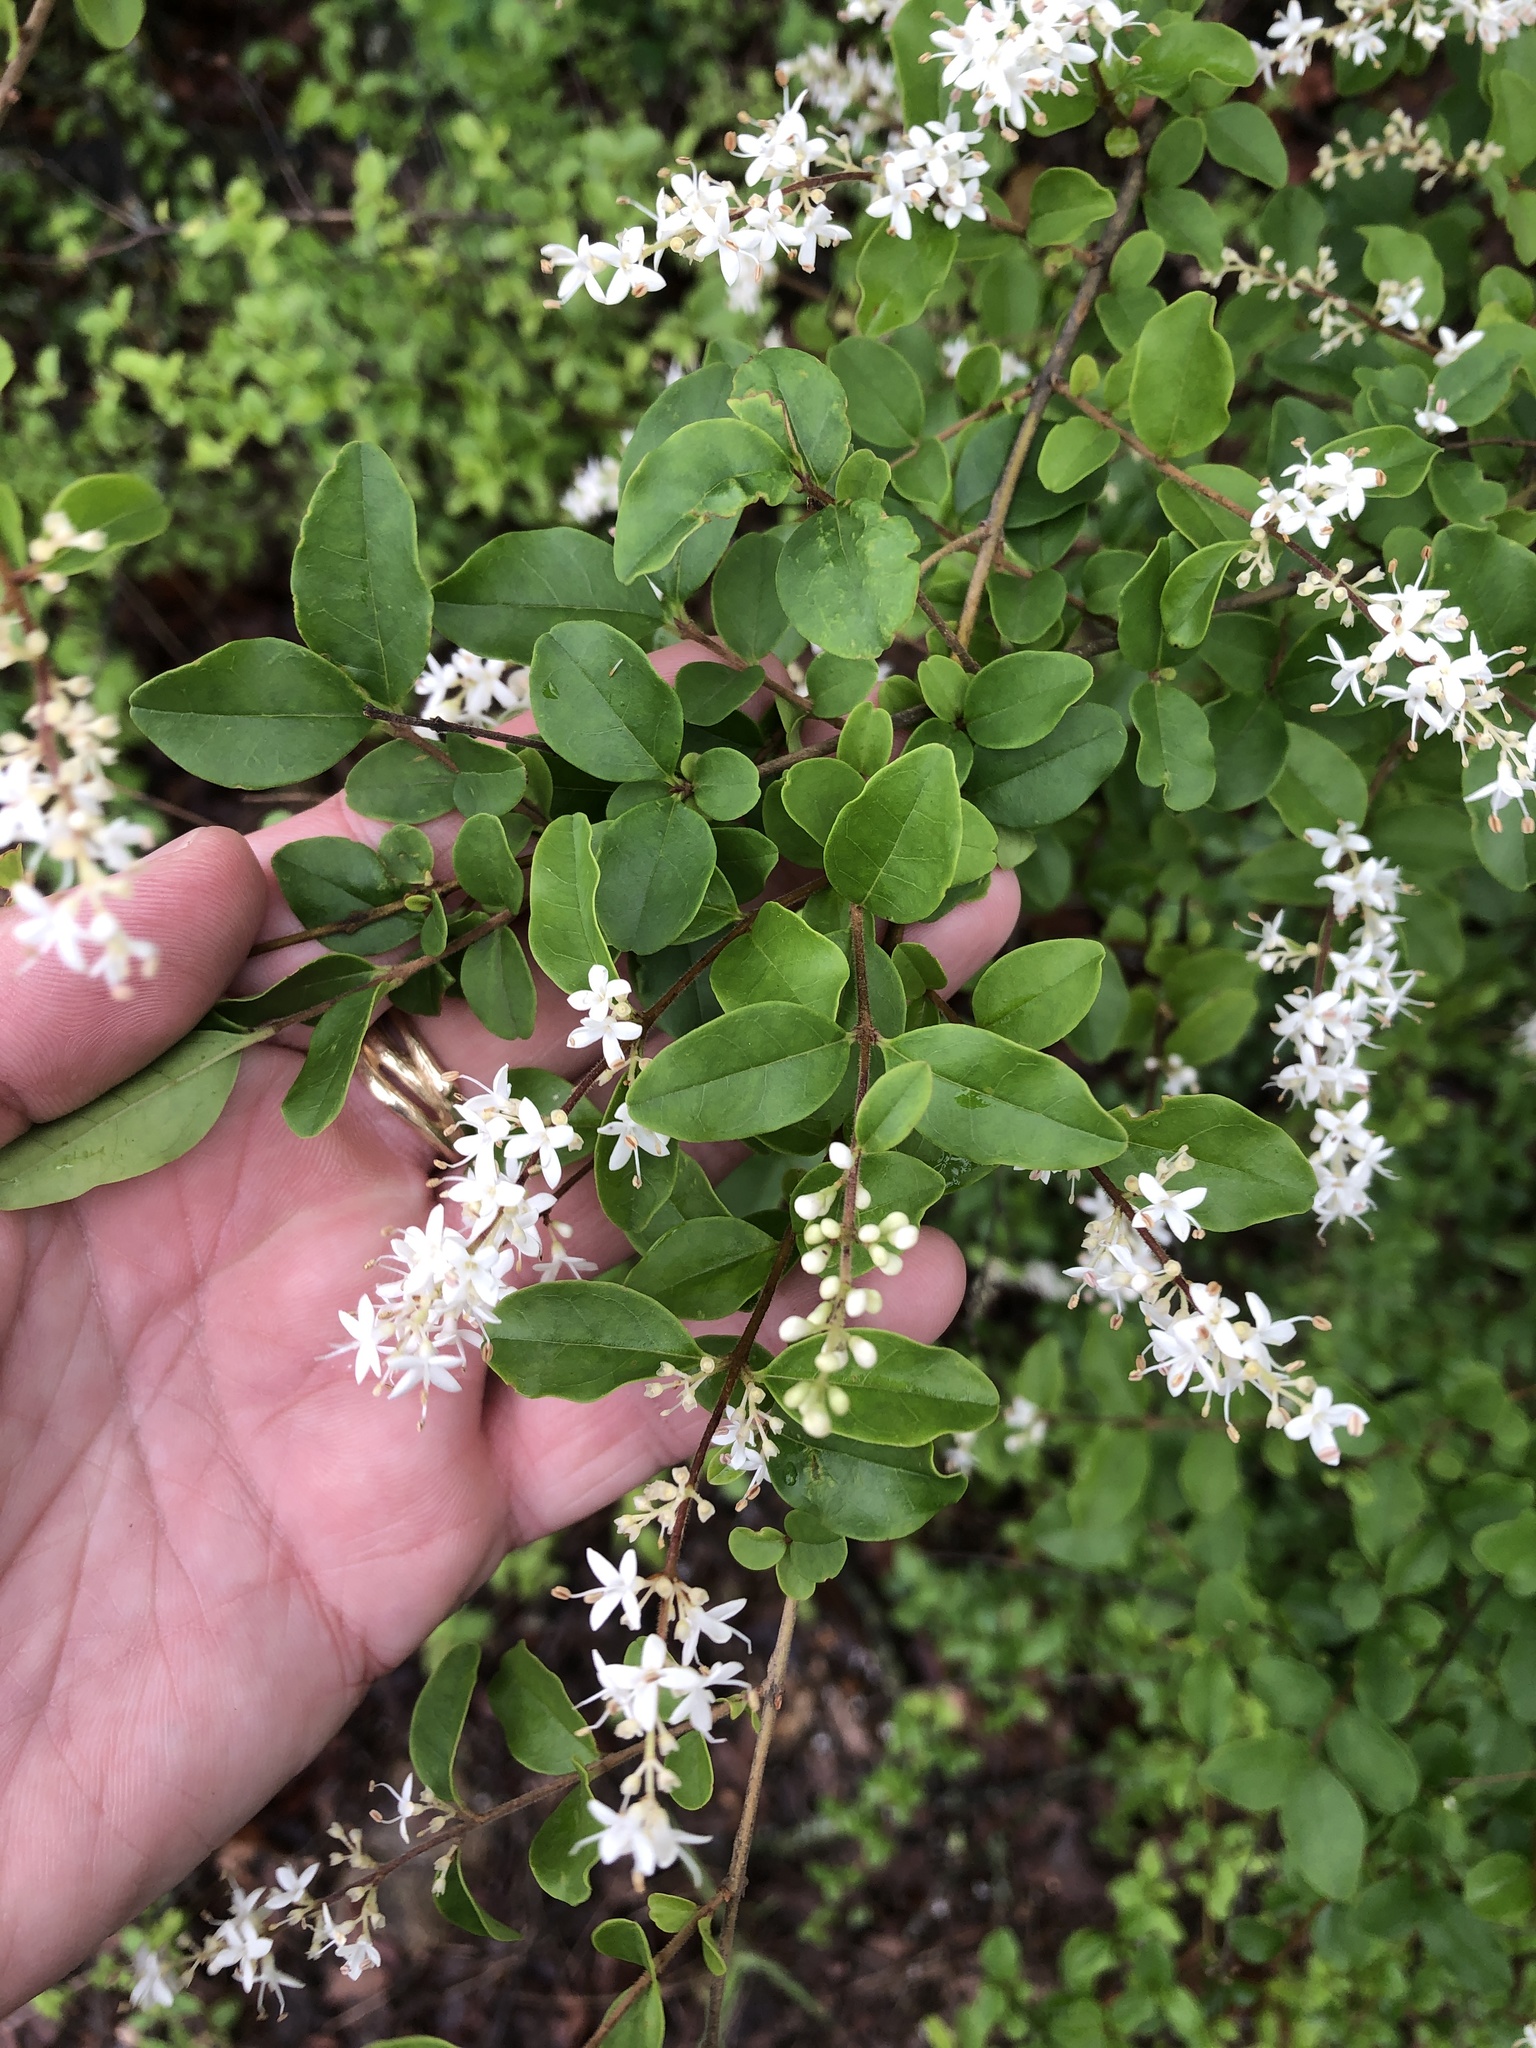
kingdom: Plantae
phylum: Tracheophyta
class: Magnoliopsida
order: Lamiales
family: Oleaceae
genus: Ligustrum
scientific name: Ligustrum sinense
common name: Chinese privet
